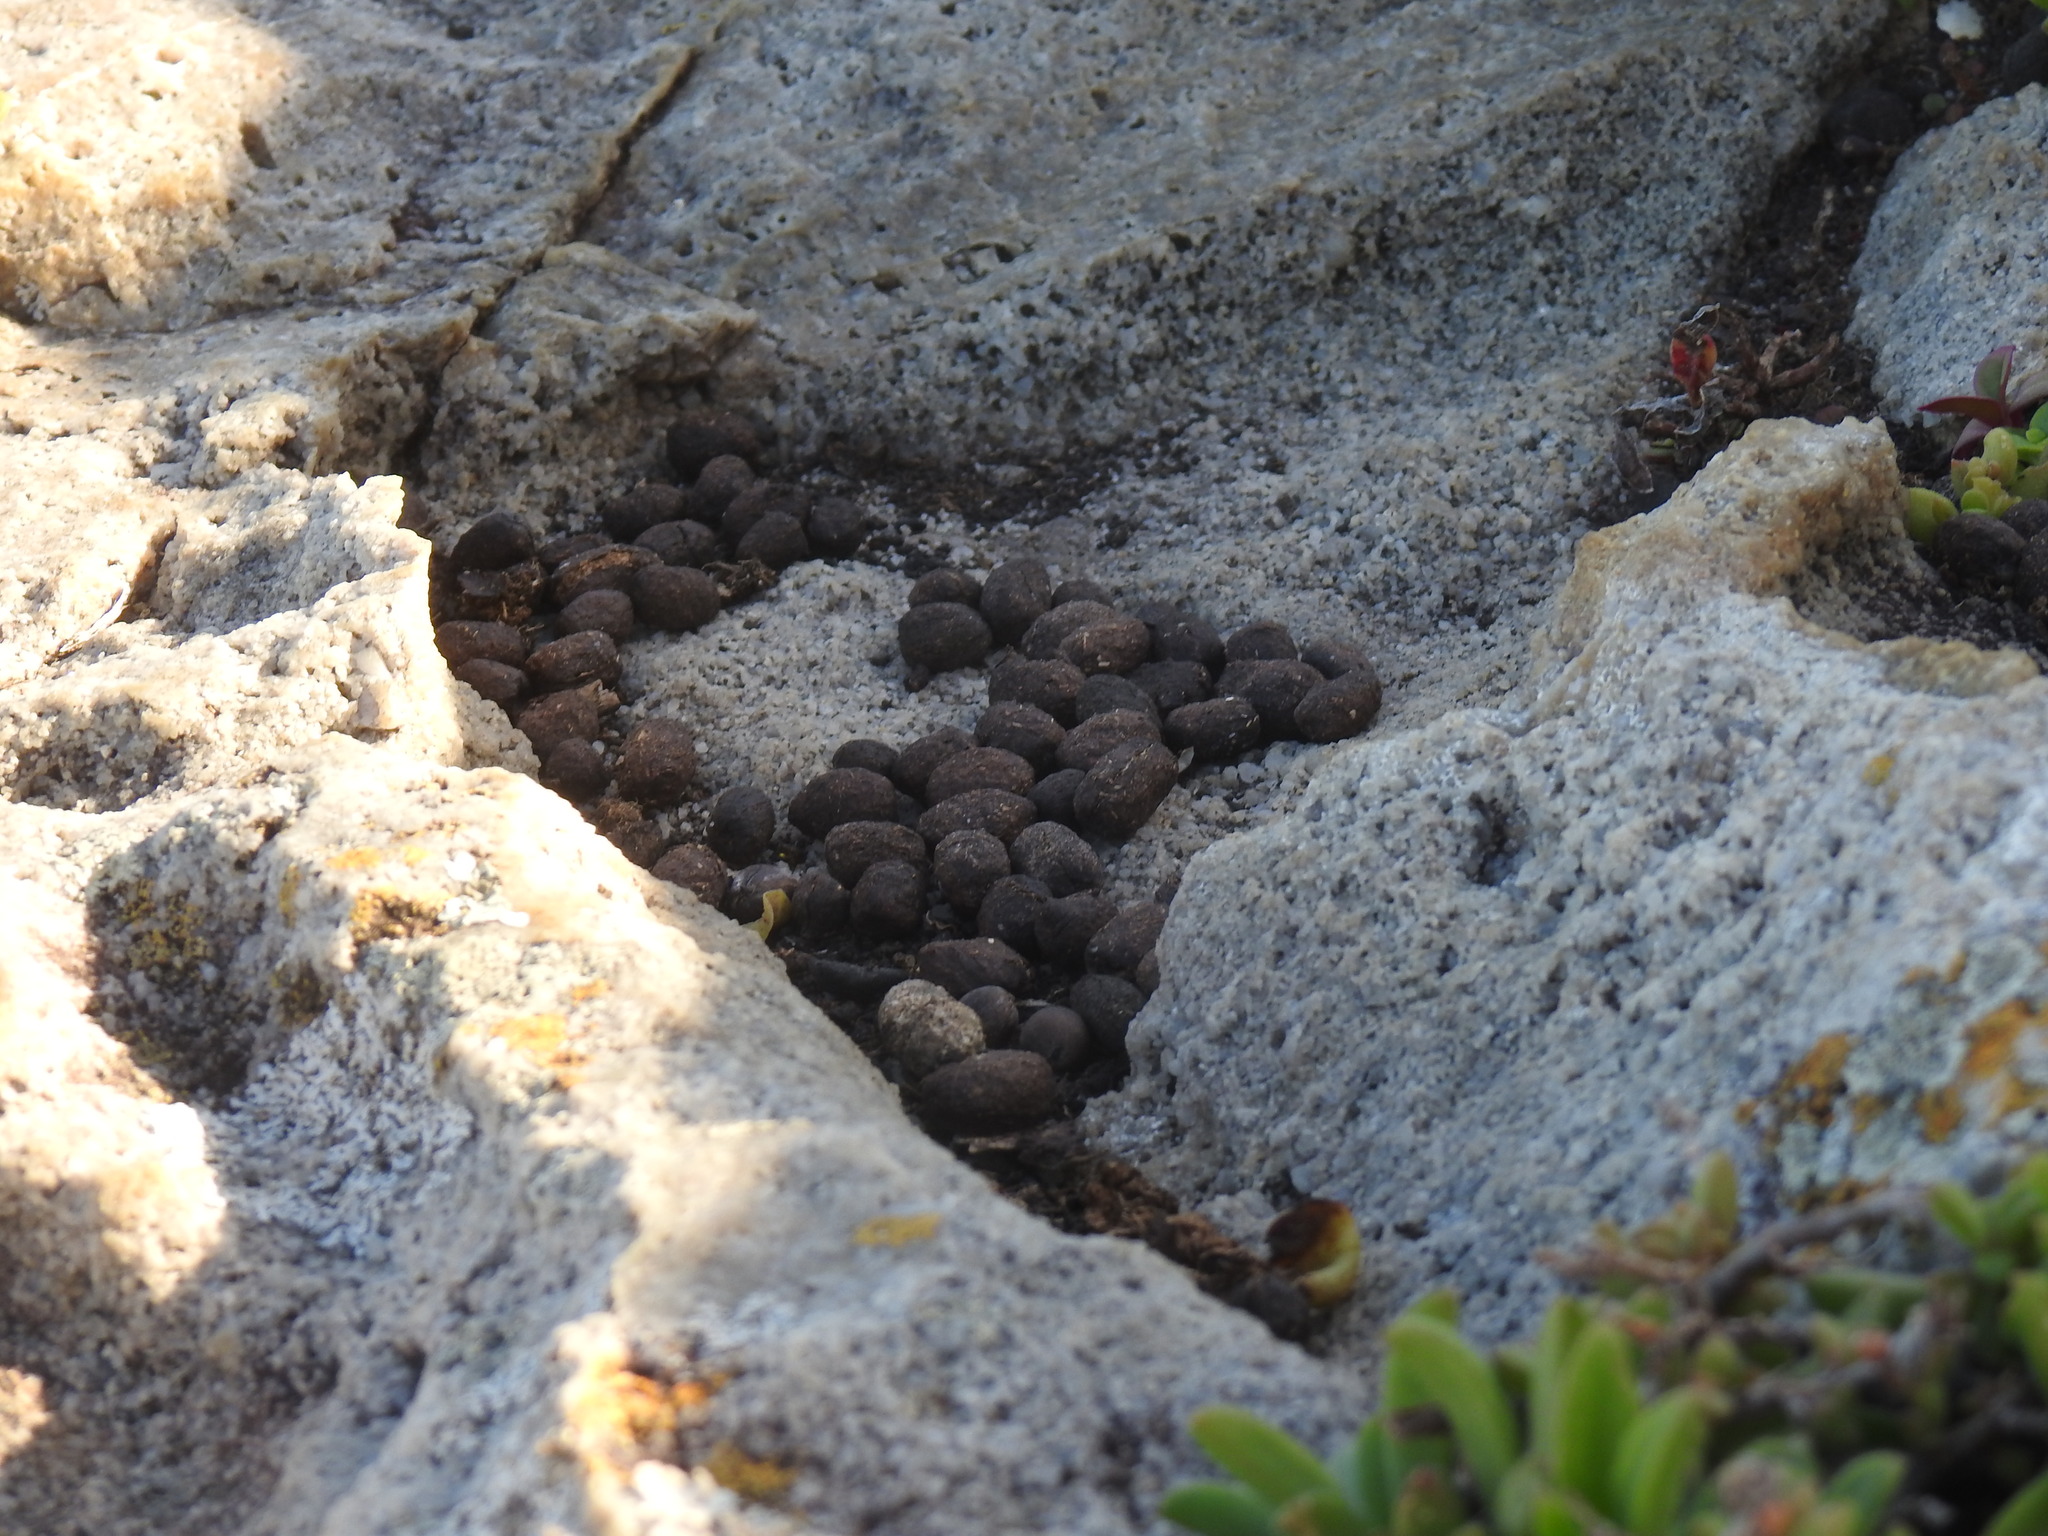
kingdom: Animalia
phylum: Chordata
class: Mammalia
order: Hyracoidea
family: Procaviidae
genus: Procavia
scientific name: Procavia capensis
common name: Rock hyrax
